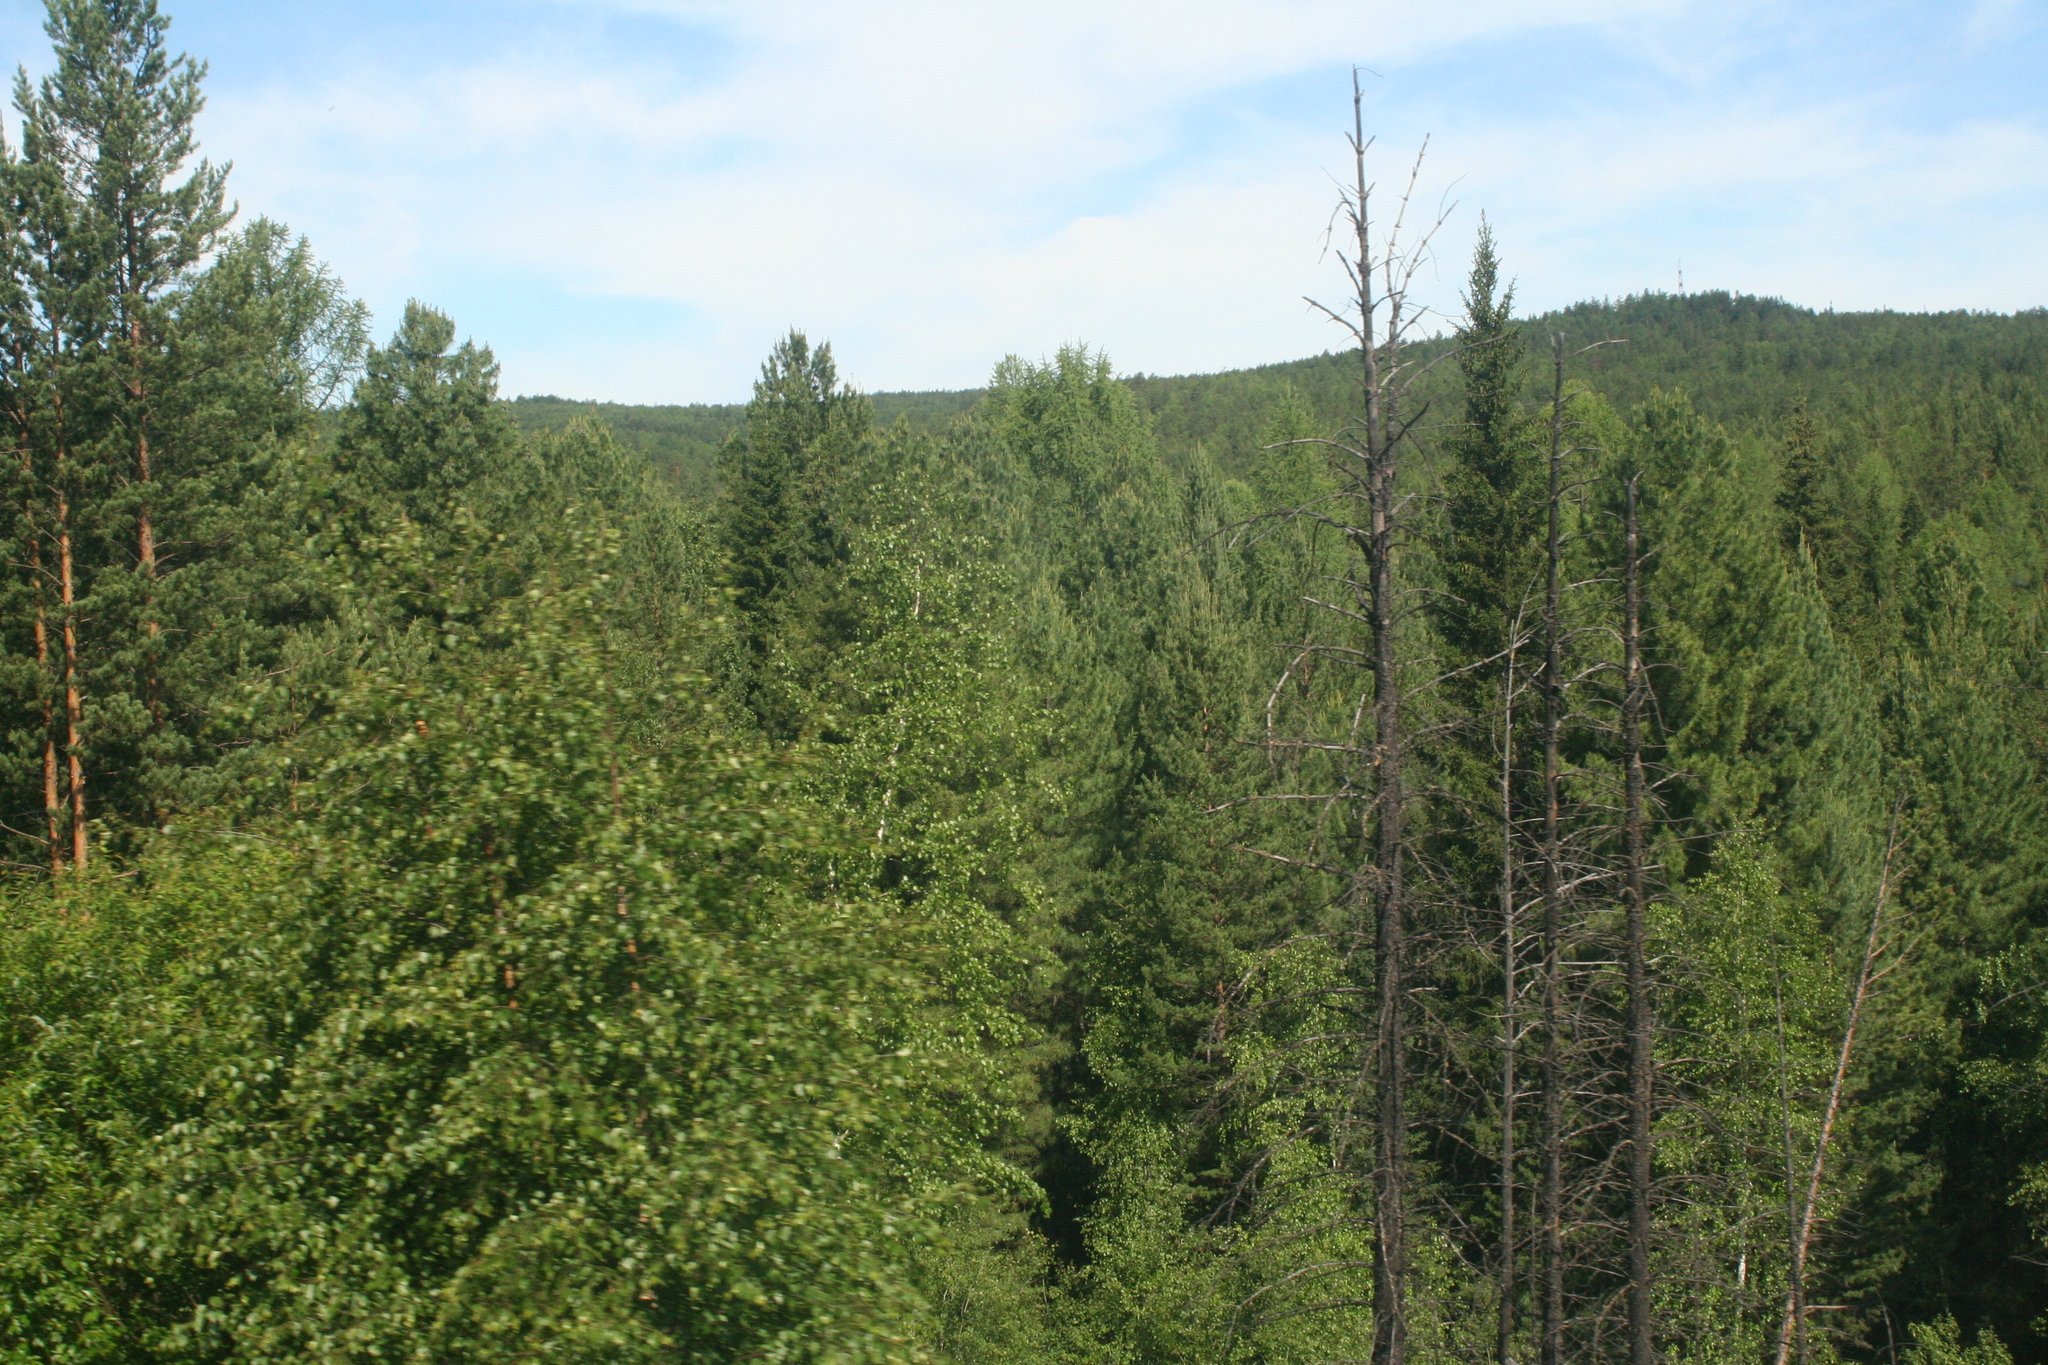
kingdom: Plantae
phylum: Tracheophyta
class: Pinopsida
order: Pinales
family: Pinaceae
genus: Picea
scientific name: Picea obovata
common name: Siberian spruce
